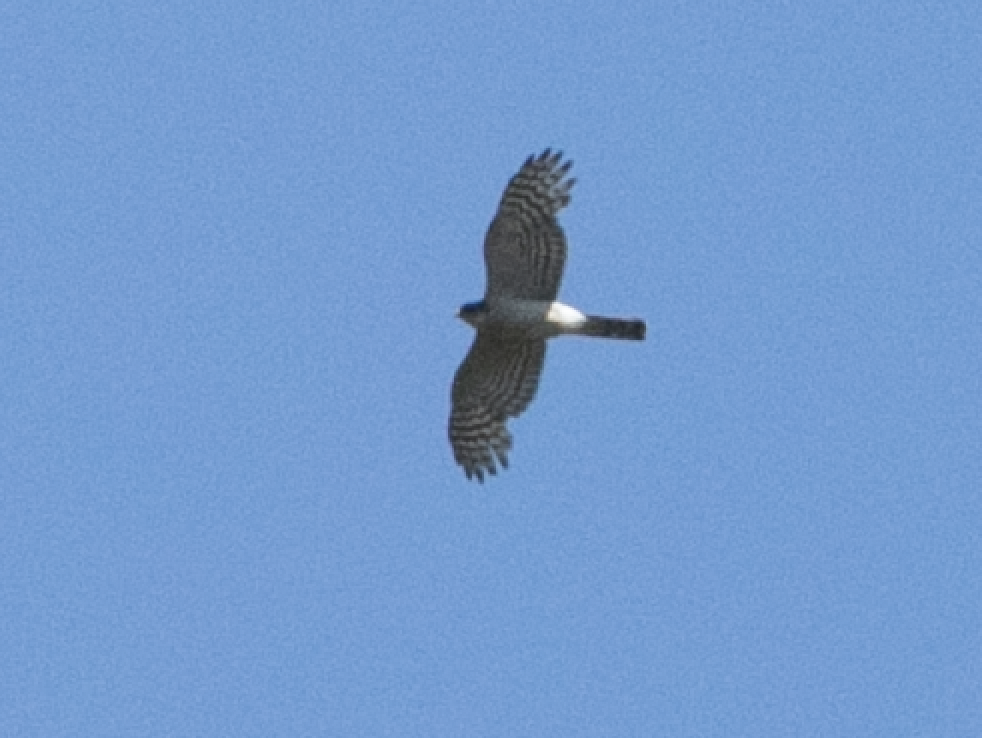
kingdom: Animalia
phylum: Chordata
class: Aves
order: Accipitriformes
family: Accipitridae
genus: Accipiter
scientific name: Accipiter nisus
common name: Eurasian sparrowhawk
